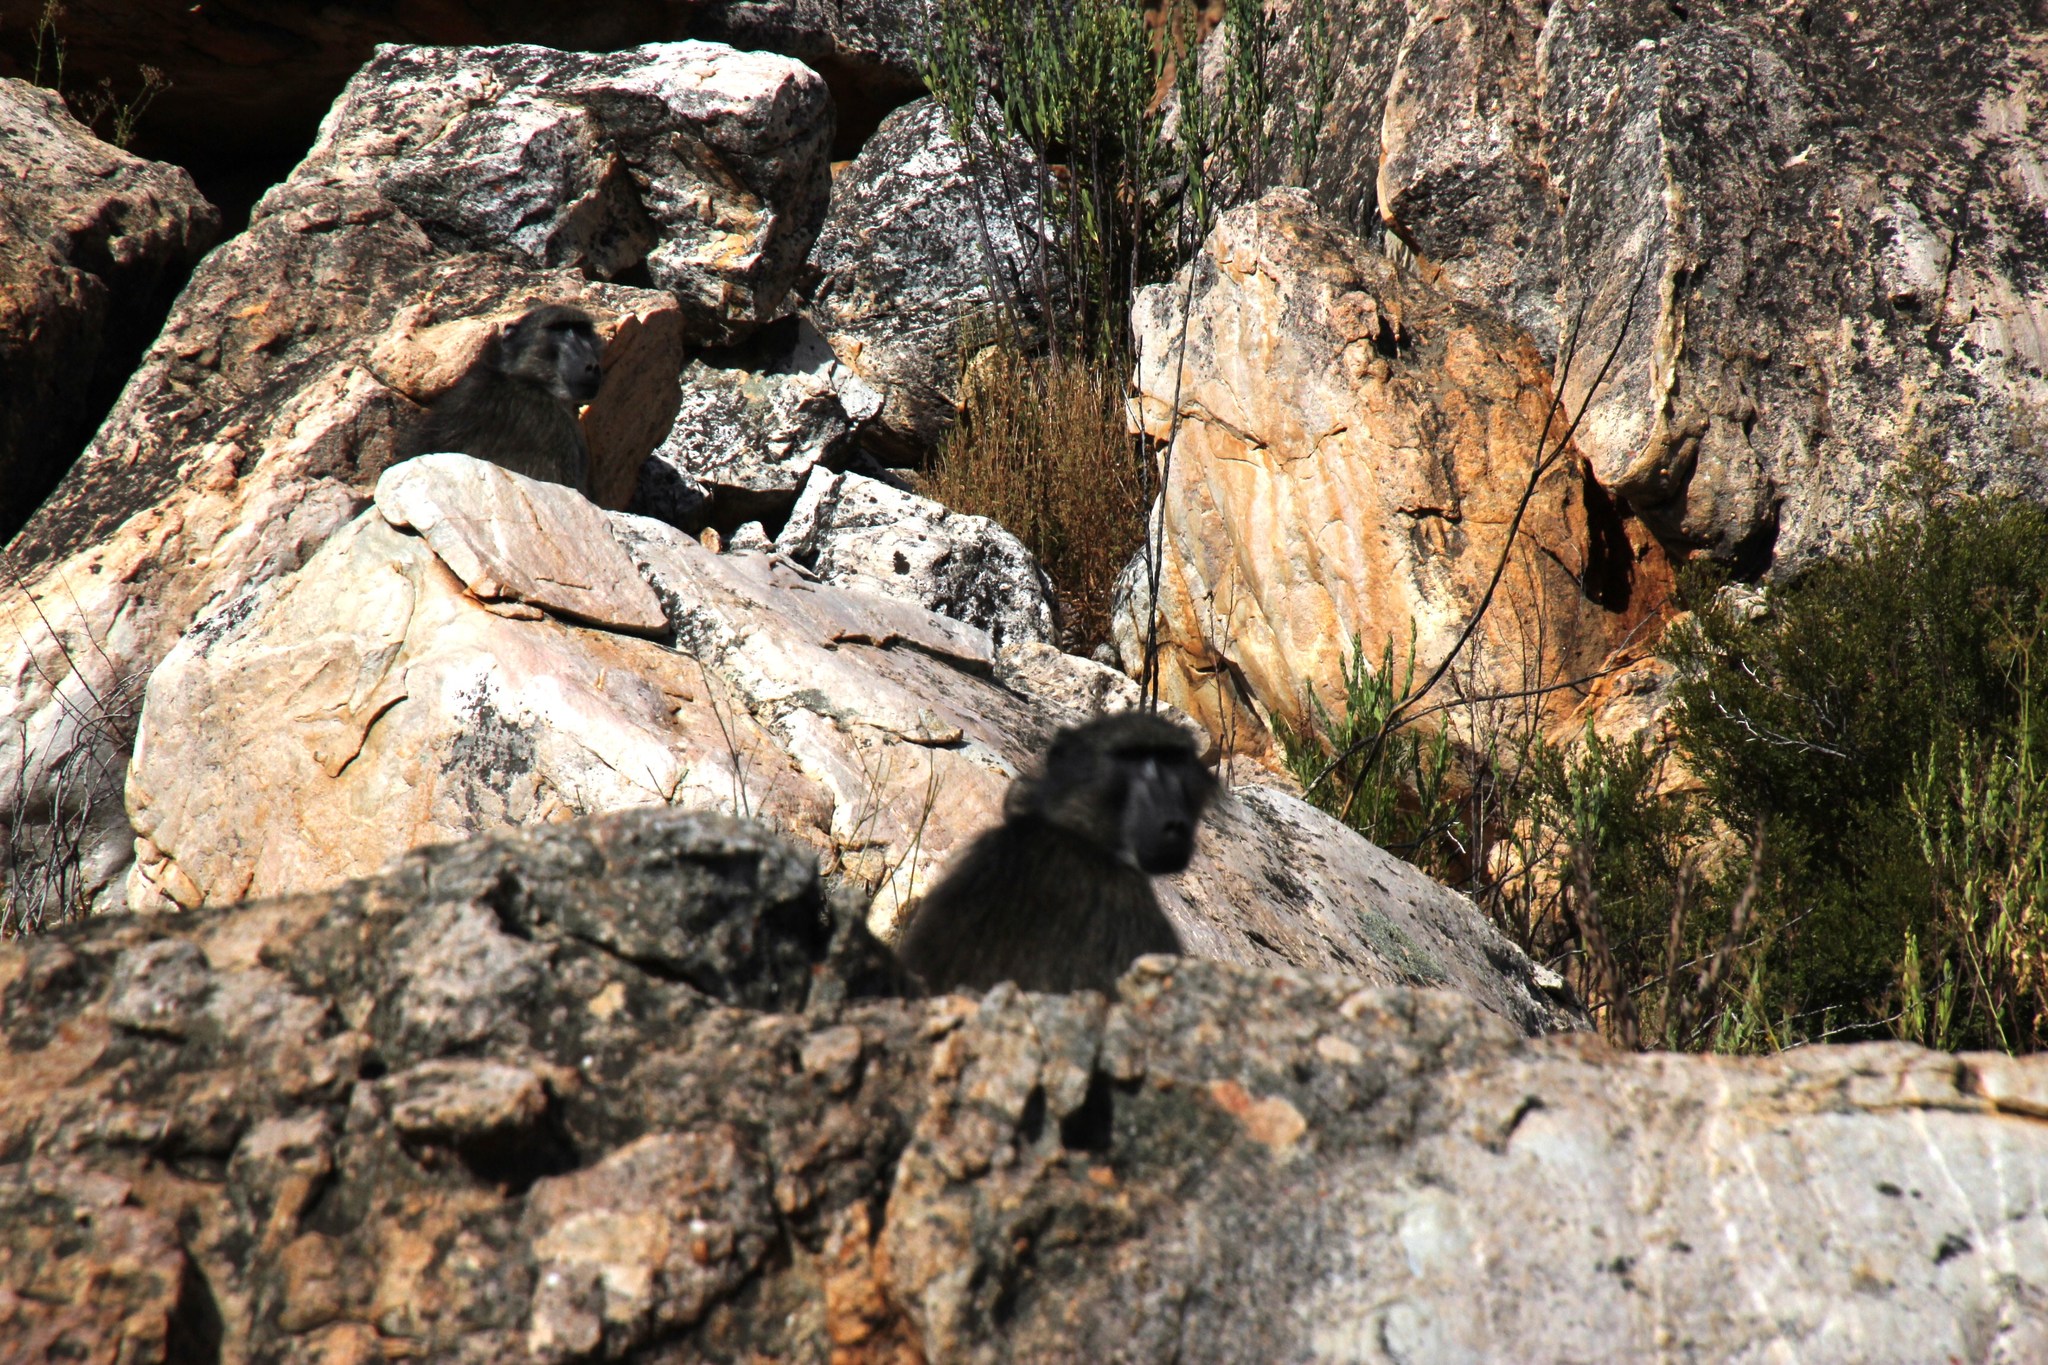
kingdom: Animalia
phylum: Chordata
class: Mammalia
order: Primates
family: Cercopithecidae
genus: Papio
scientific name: Papio ursinus
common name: Chacma baboon
